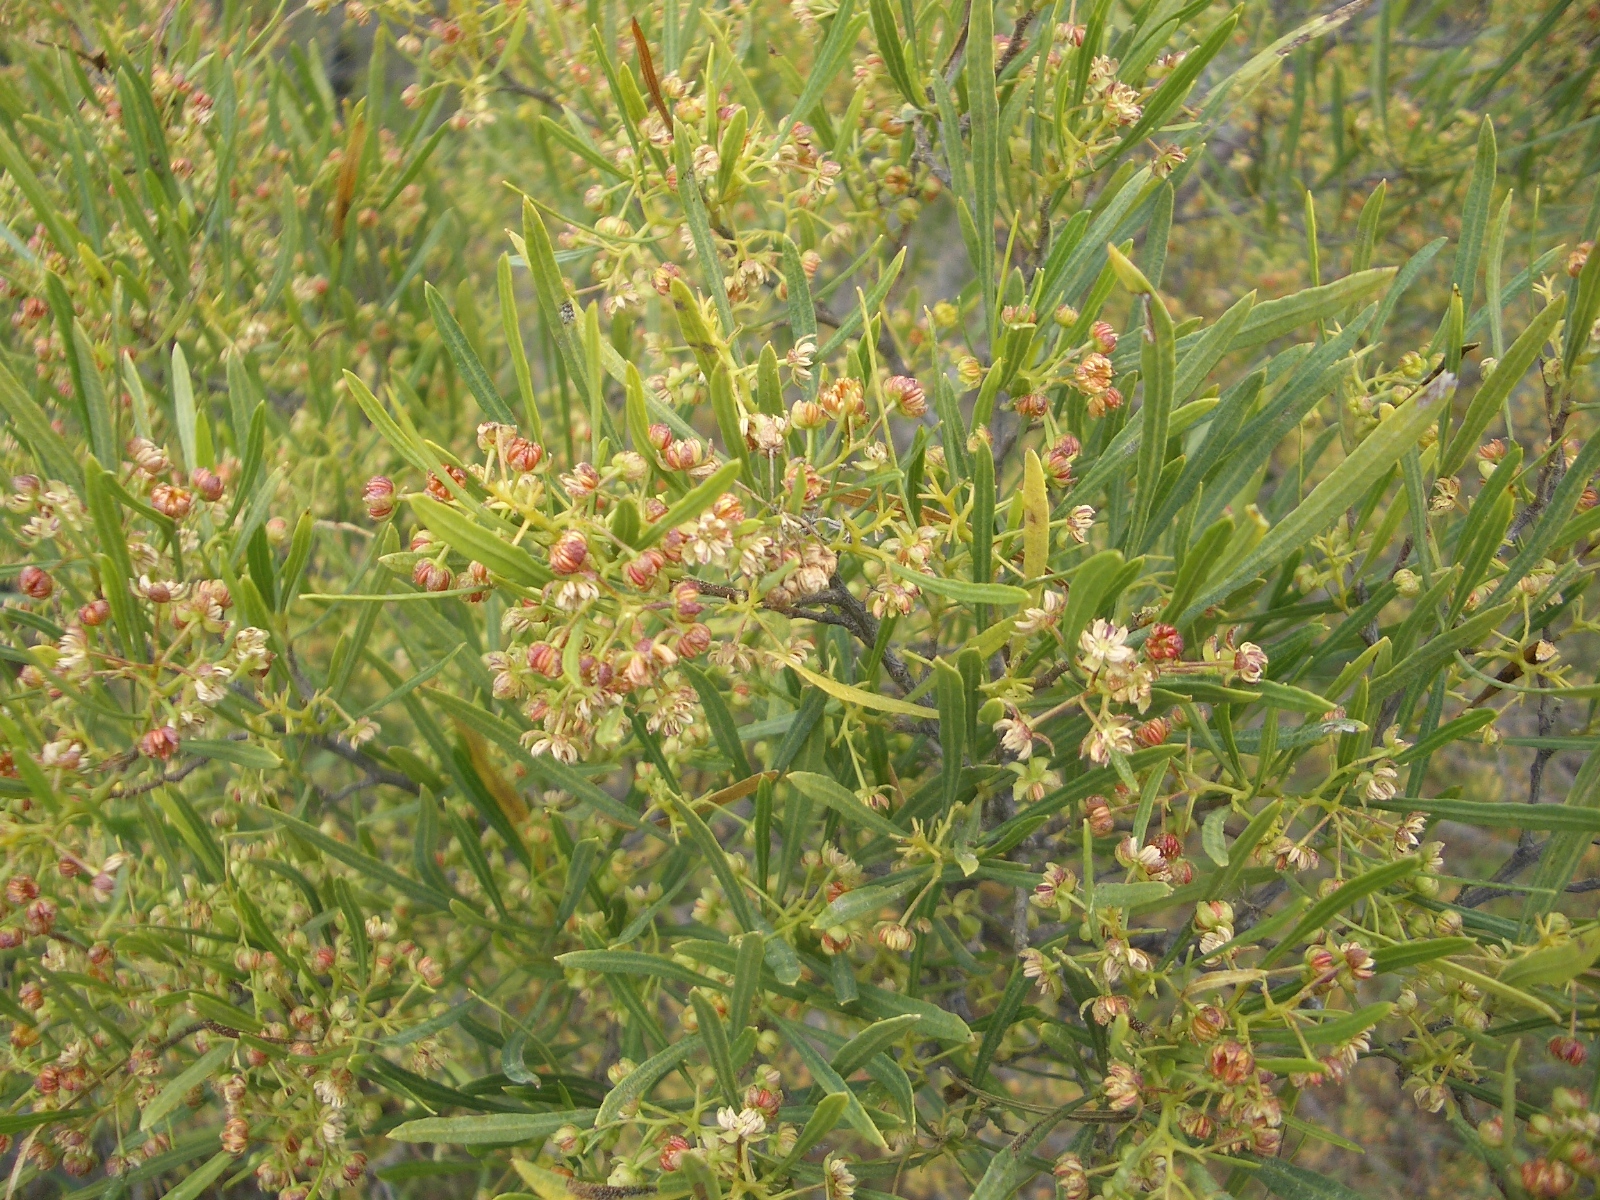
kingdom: Plantae
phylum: Tracheophyta
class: Magnoliopsida
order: Sapindales
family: Sapindaceae
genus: Dodonaea
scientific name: Dodonaea viscosa
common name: Hopbush
